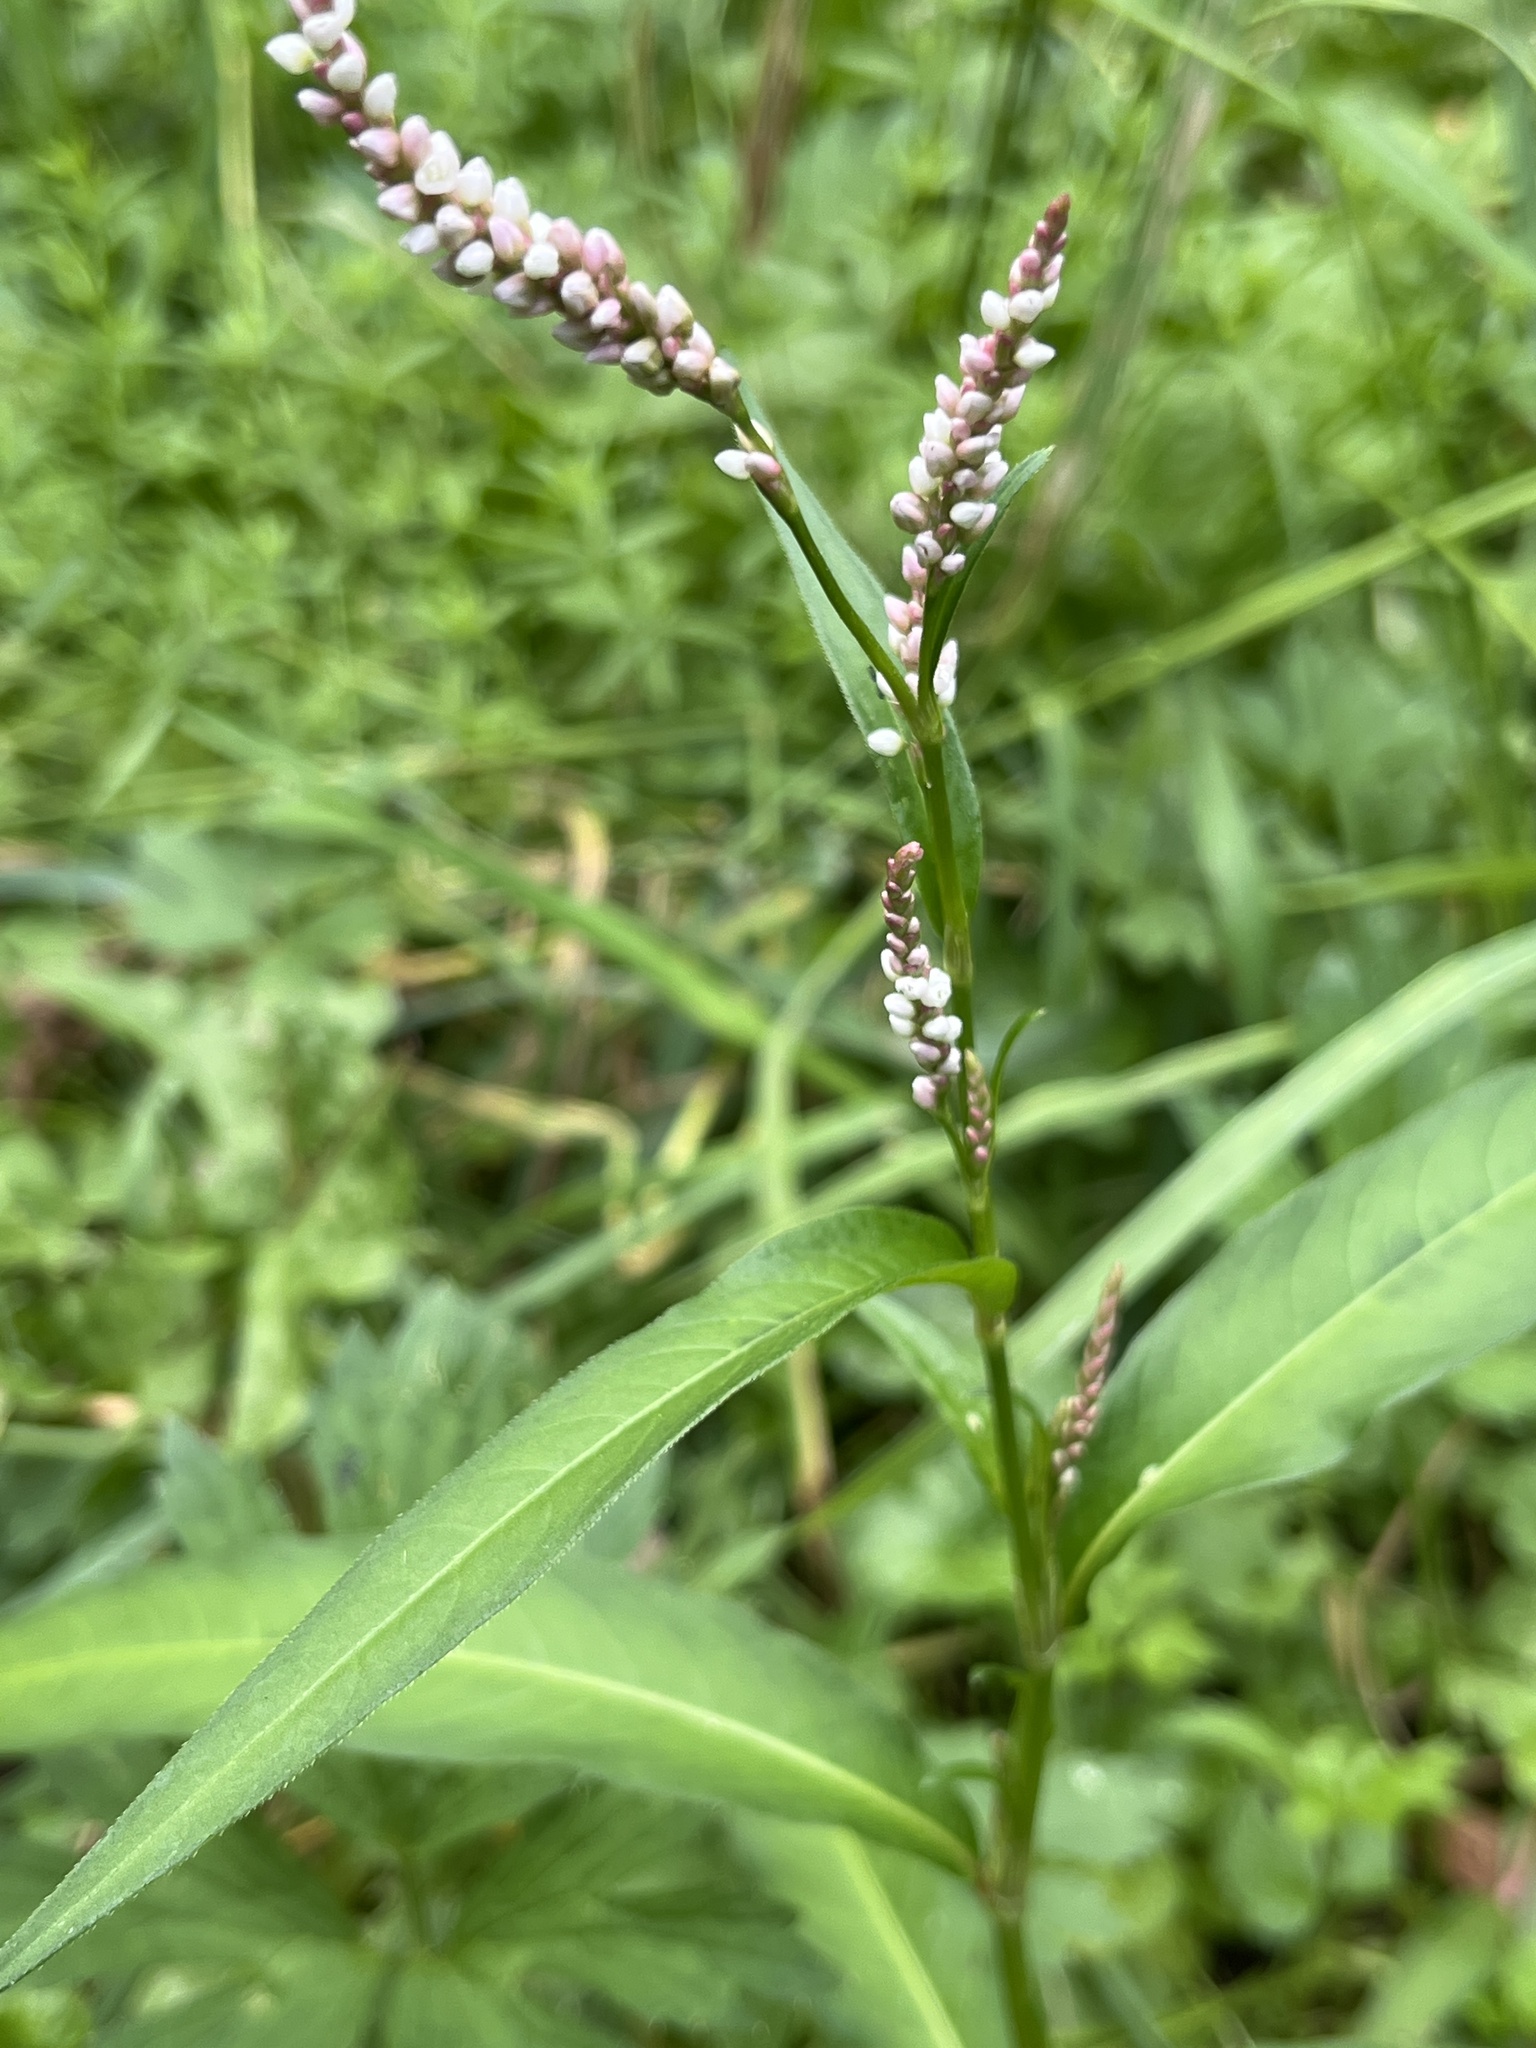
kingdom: Plantae
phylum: Tracheophyta
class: Magnoliopsida
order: Caryophyllales
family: Polygonaceae
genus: Persicaria
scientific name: Persicaria maculosa
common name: Redshank
